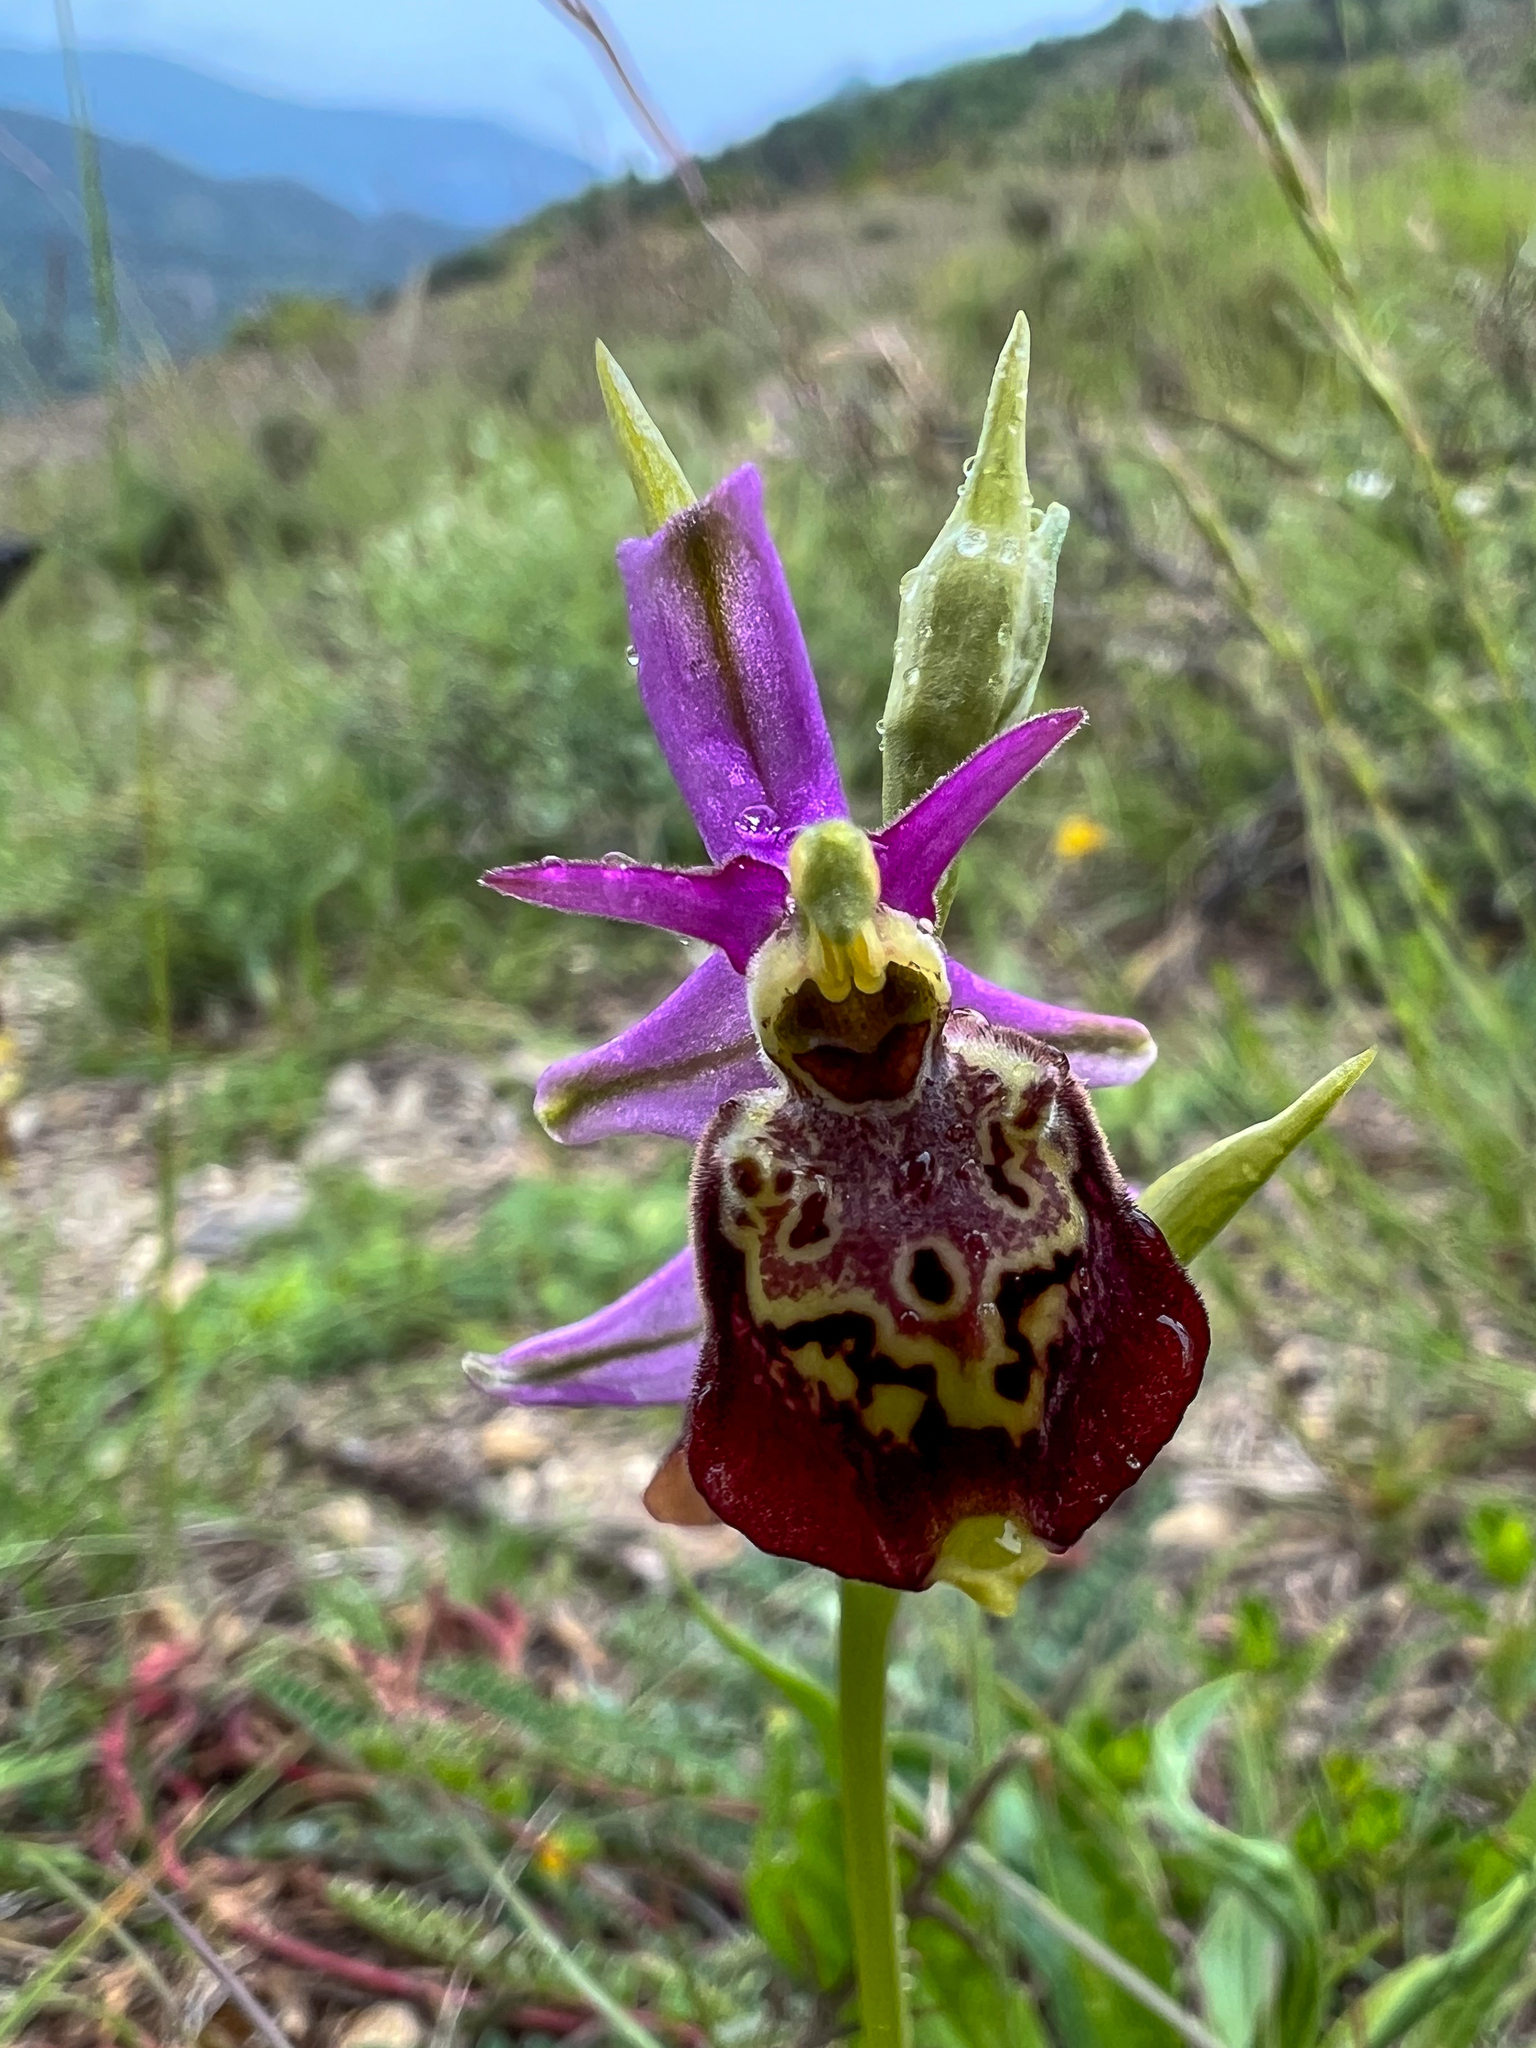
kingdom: Plantae
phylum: Tracheophyta
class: Liliopsida
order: Asparagales
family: Orchidaceae
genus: Ophrys
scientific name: Ophrys holosericea
